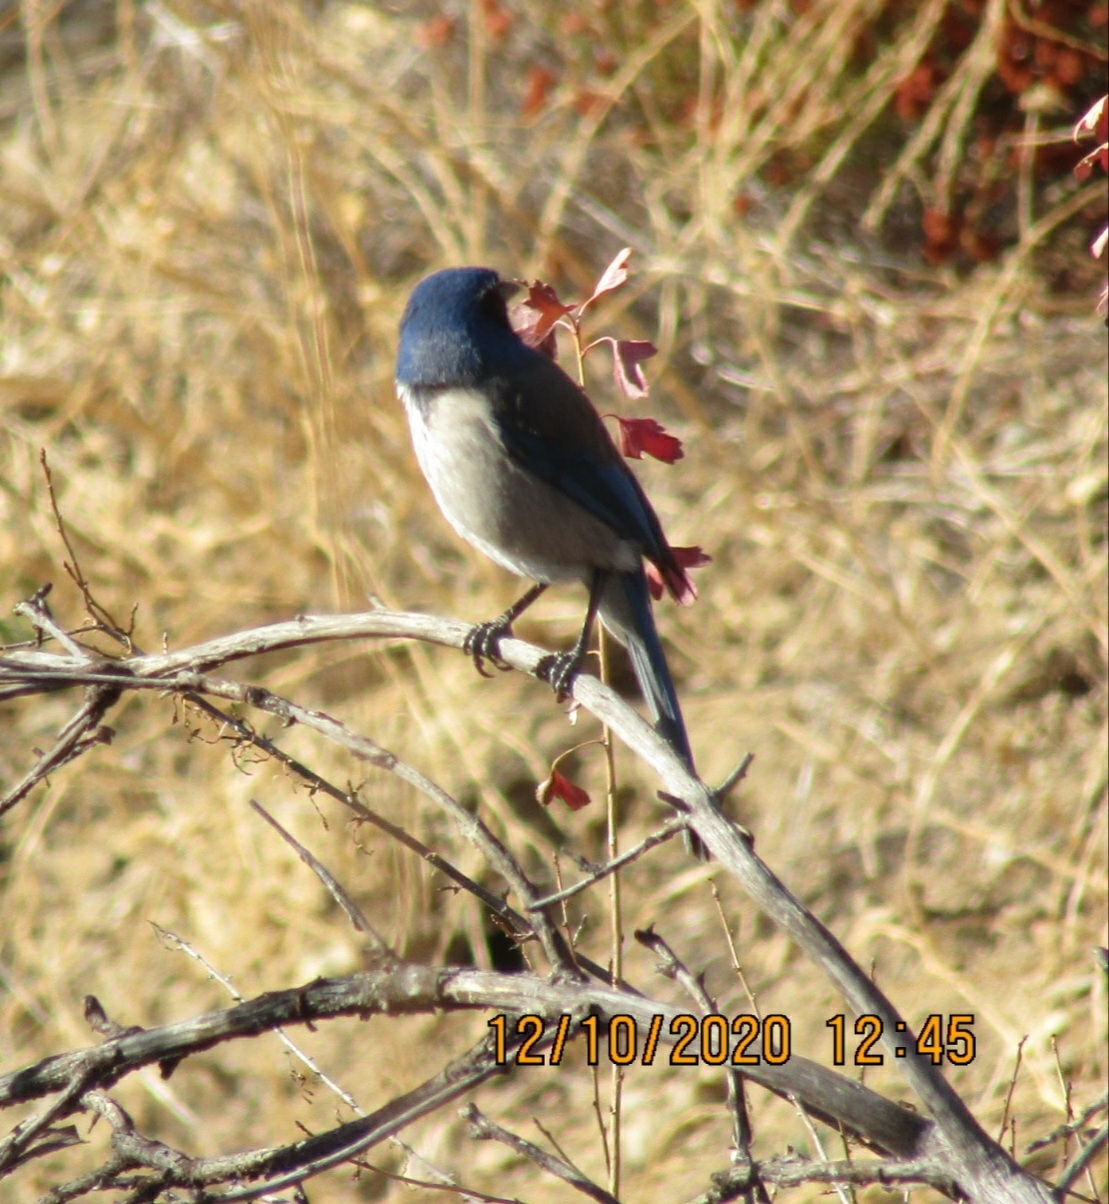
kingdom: Animalia
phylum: Chordata
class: Aves
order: Passeriformes
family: Corvidae
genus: Aphelocoma
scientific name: Aphelocoma californica
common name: California scrub-jay
